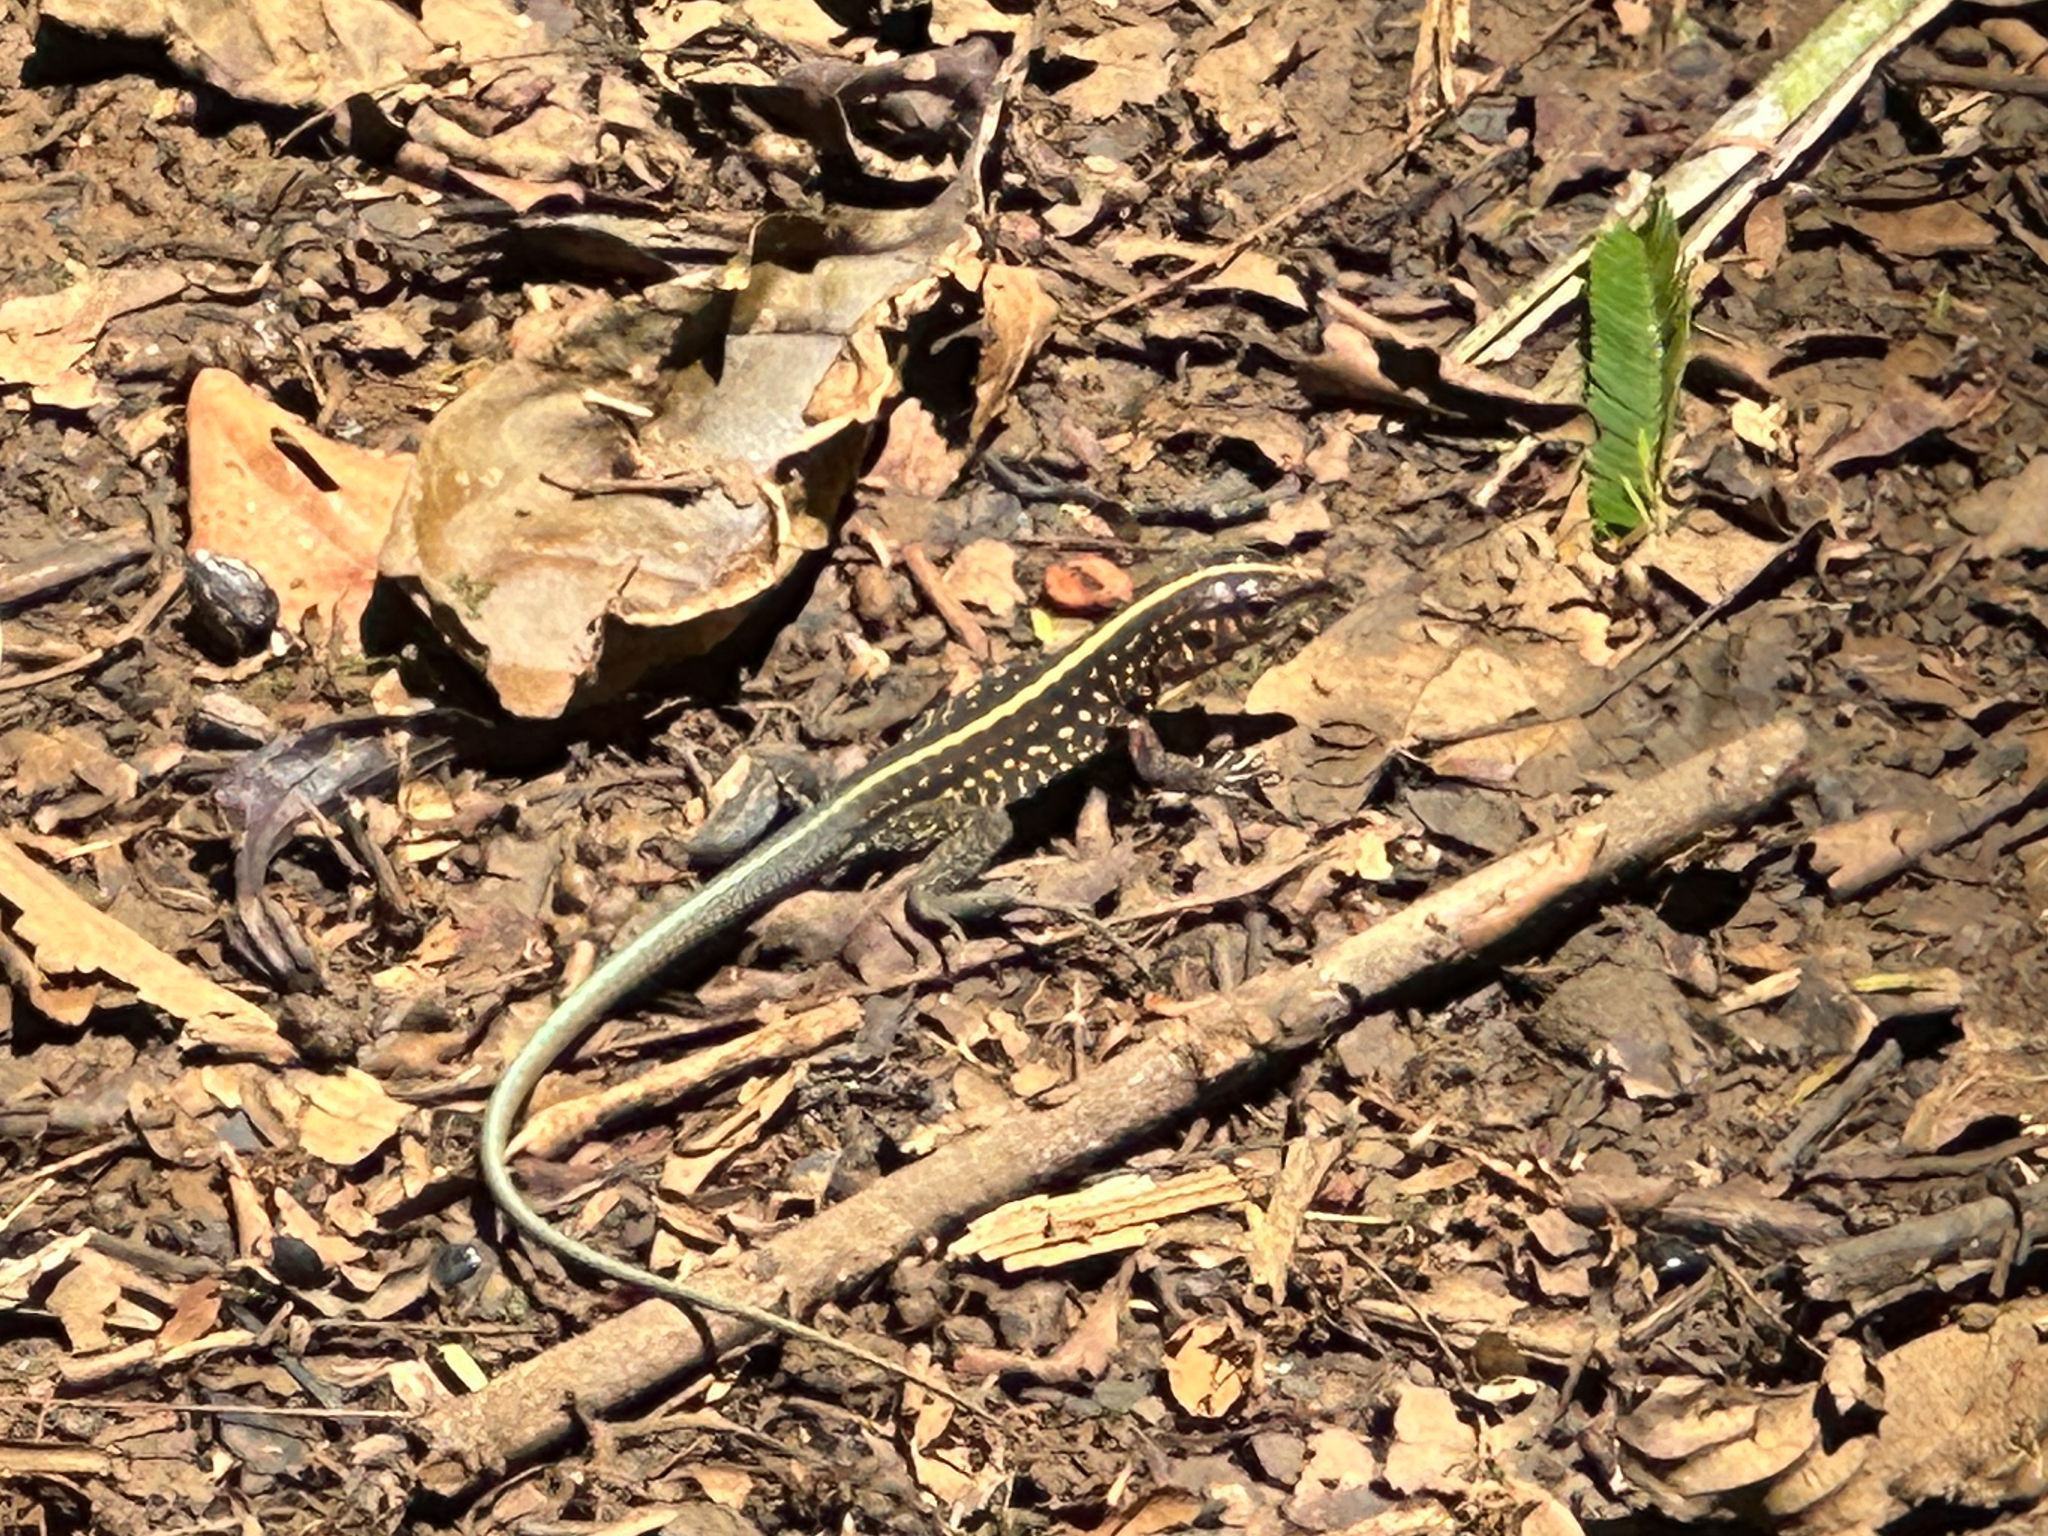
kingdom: Animalia
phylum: Chordata
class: Squamata
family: Teiidae
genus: Holcosus
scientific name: Holcosus festivus
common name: Middle american ameiva
